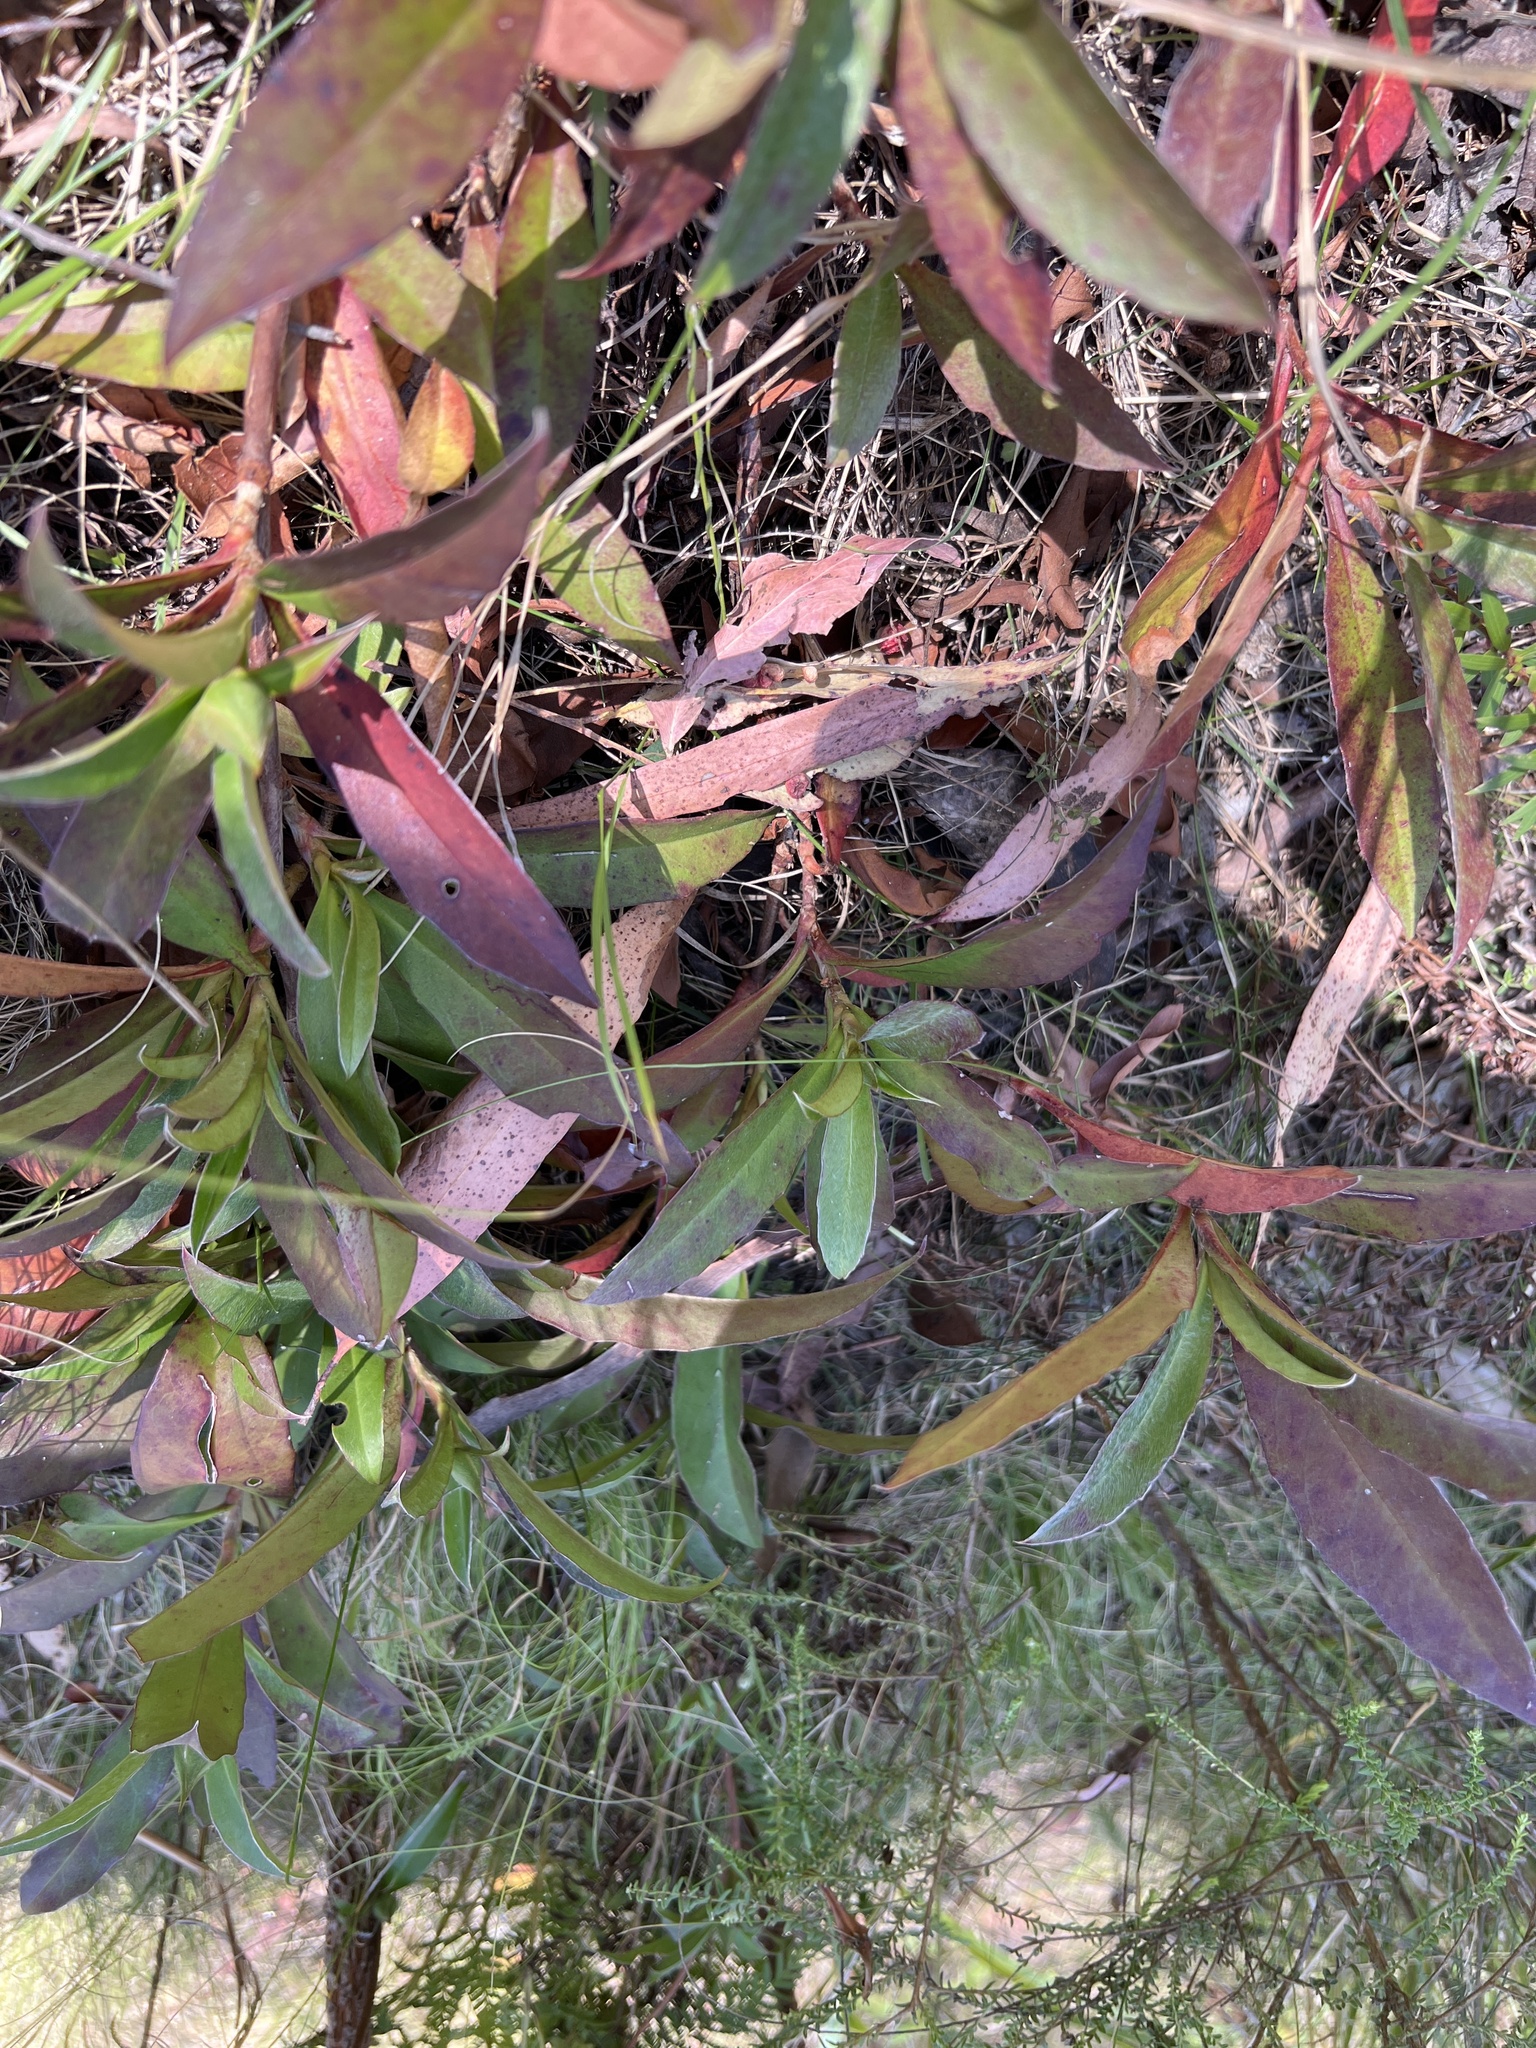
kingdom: Plantae
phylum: Tracheophyta
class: Magnoliopsida
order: Dilleniales
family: Dilleniaceae
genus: Hibbertia
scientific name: Hibbertia scandens
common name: Climbing guinea-flower
